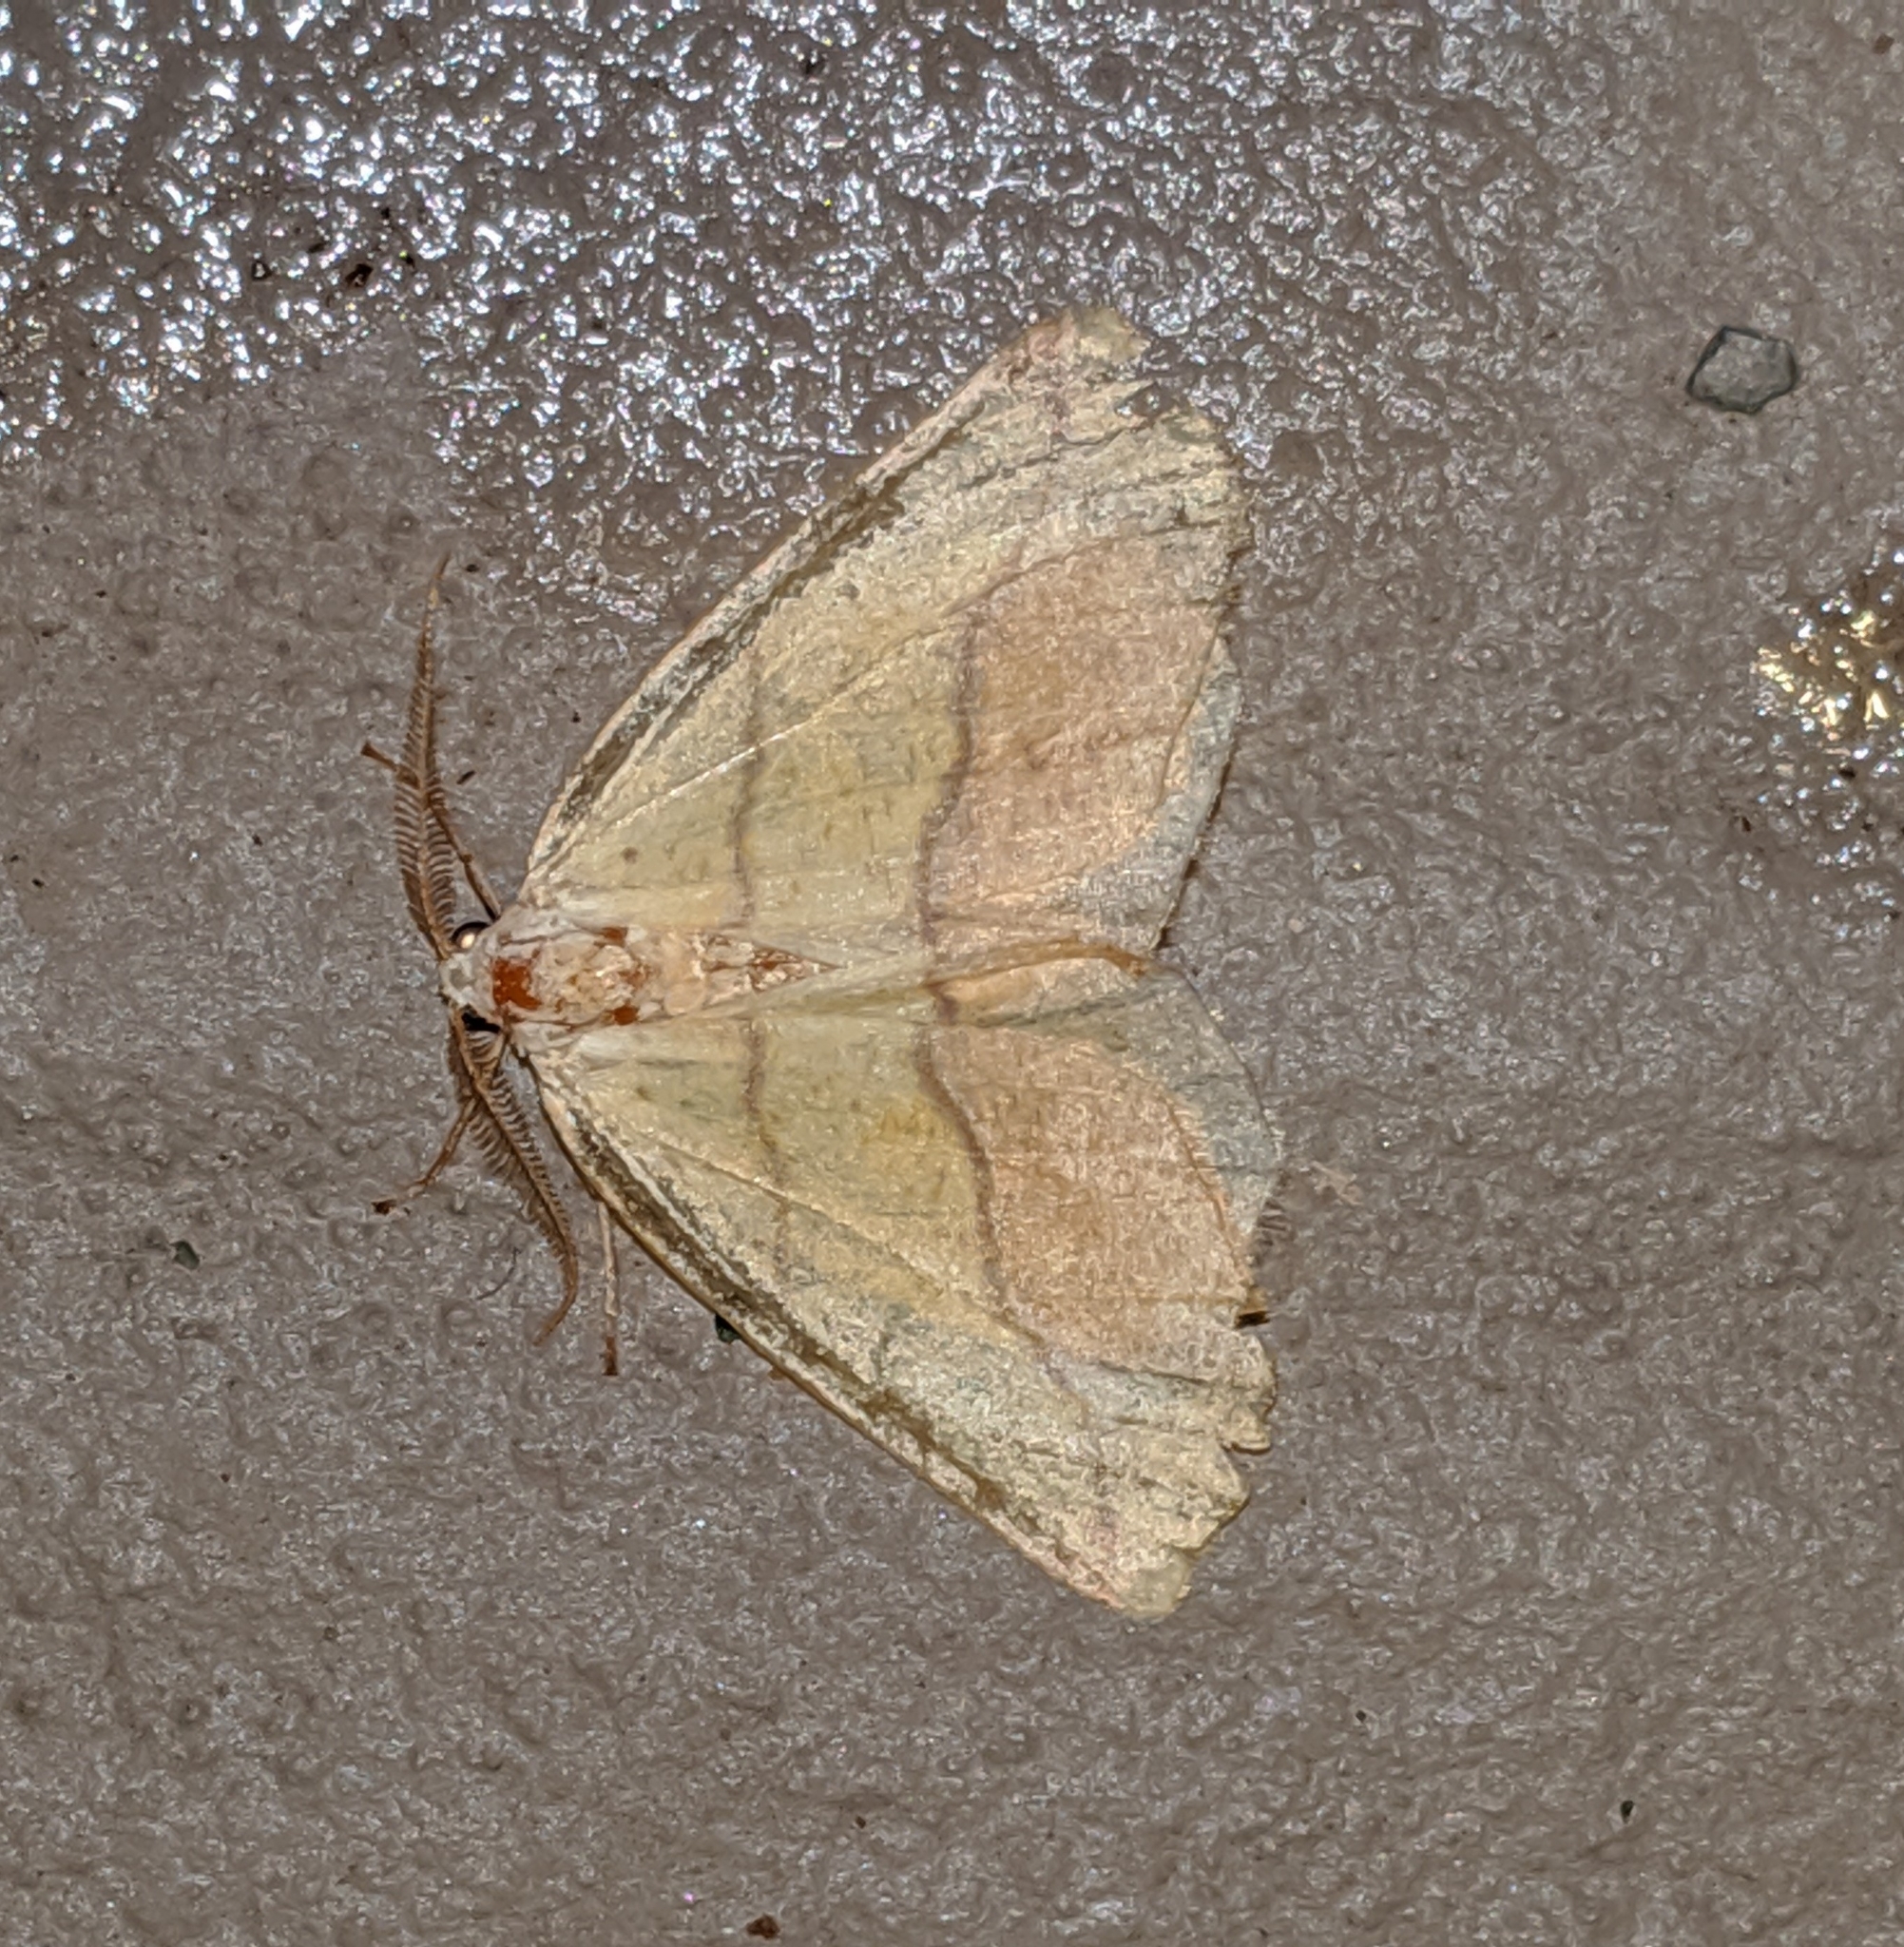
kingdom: Animalia
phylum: Arthropoda
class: Insecta
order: Lepidoptera
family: Geometridae
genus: Sicya
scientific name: Sicya macularia
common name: Sharp-lined yellow
